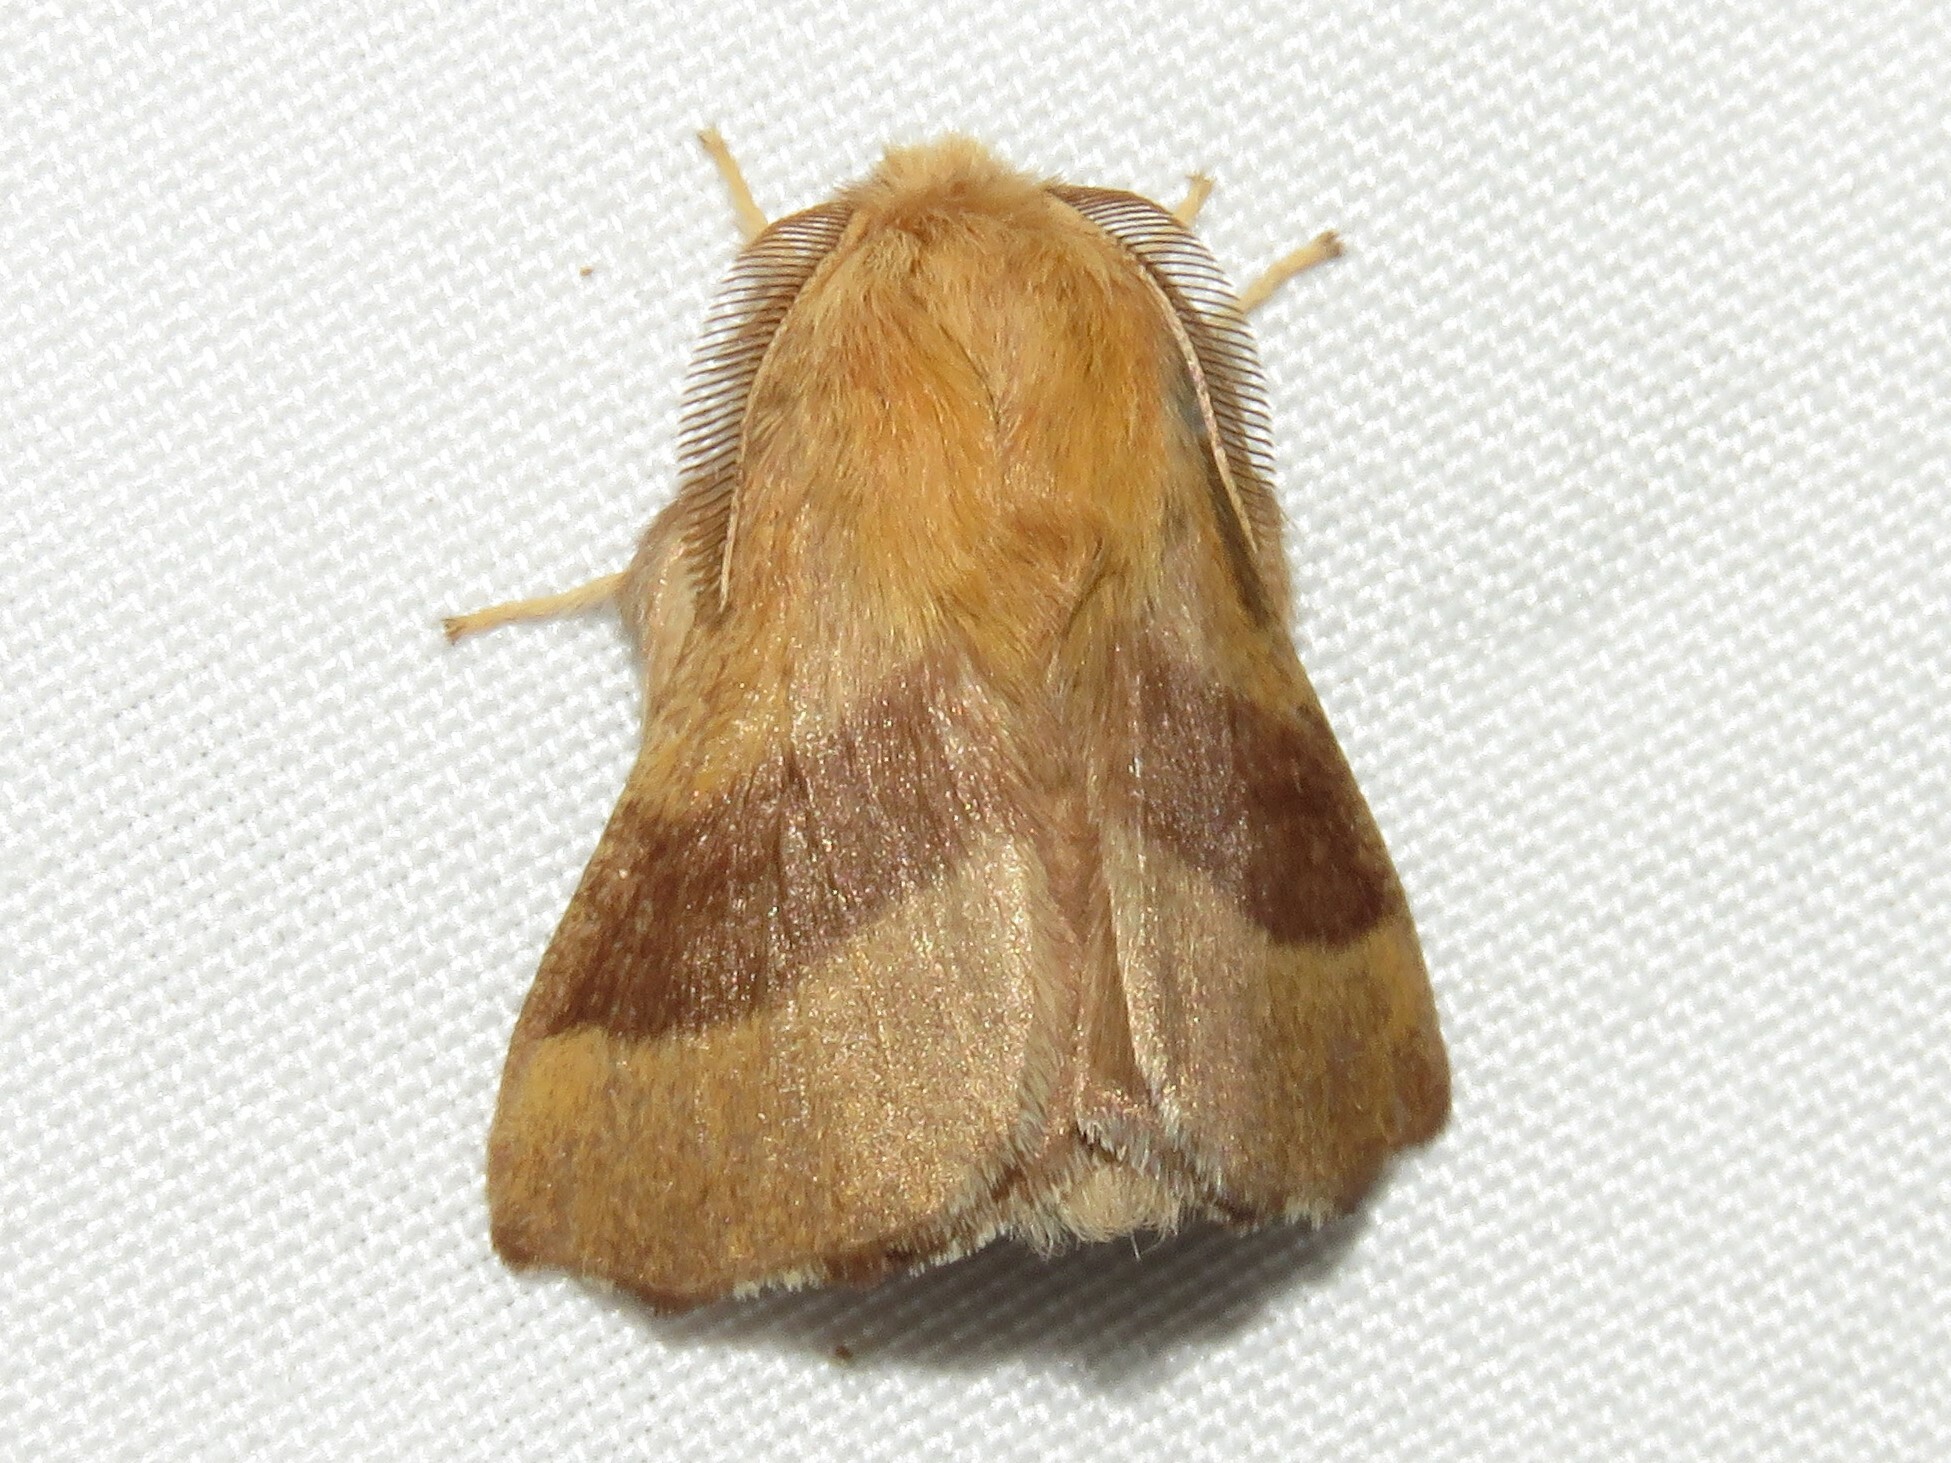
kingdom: Animalia
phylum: Arthropoda
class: Insecta
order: Lepidoptera
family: Lasiocampidae
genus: Malacosoma
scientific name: Malacosoma disstria
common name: Forest tent caterpillar
